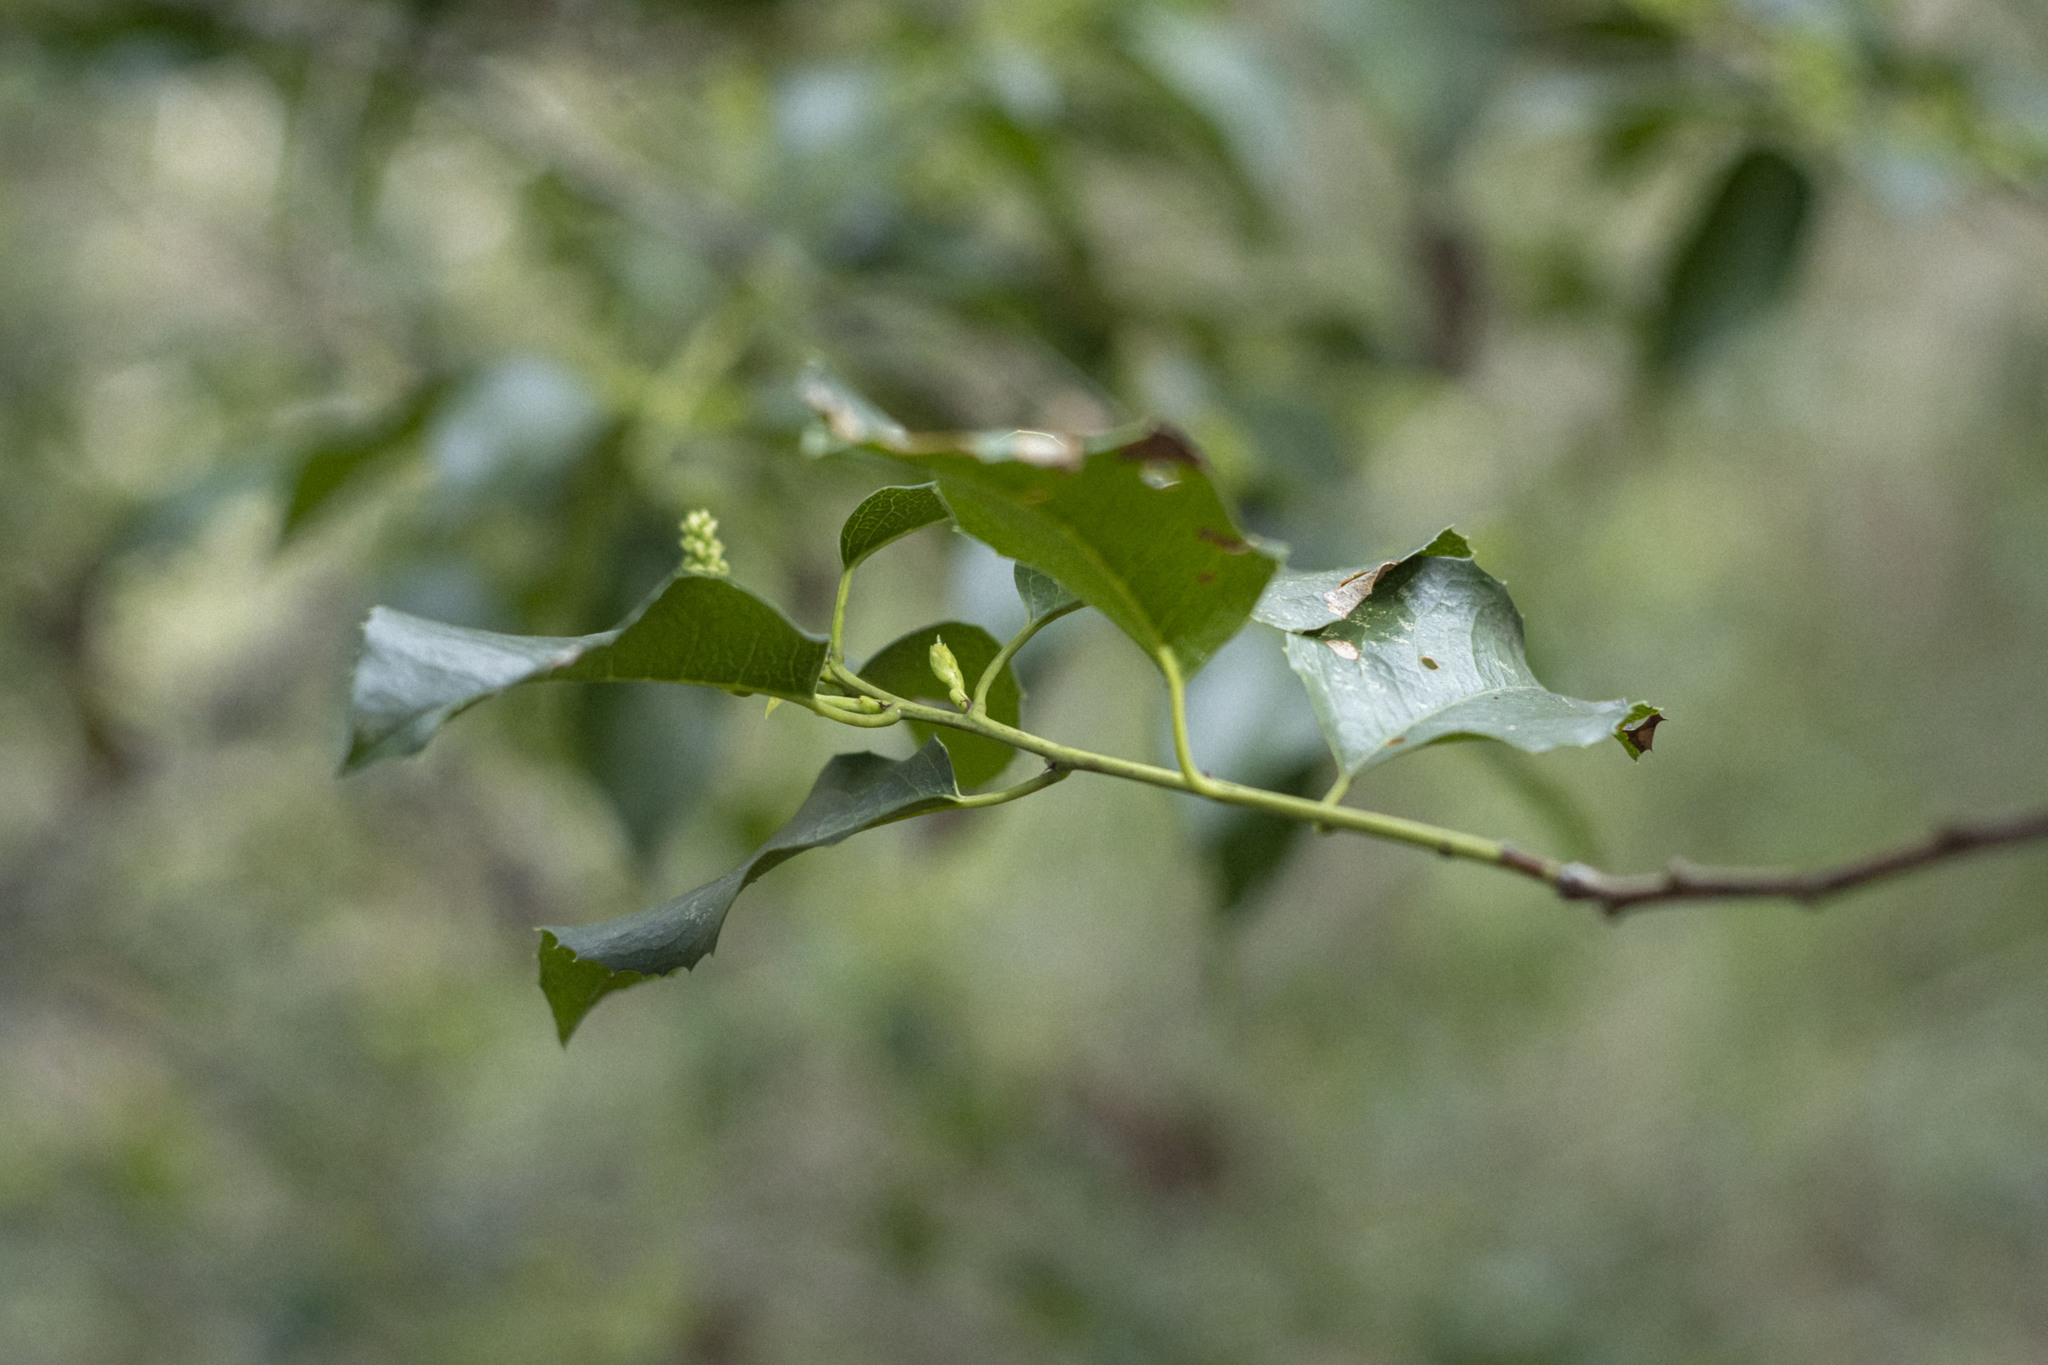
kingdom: Plantae
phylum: Tracheophyta
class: Magnoliopsida
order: Rosales
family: Rosaceae
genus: Prunus
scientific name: Prunus ilicifolia
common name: Hollyleaf cherry
